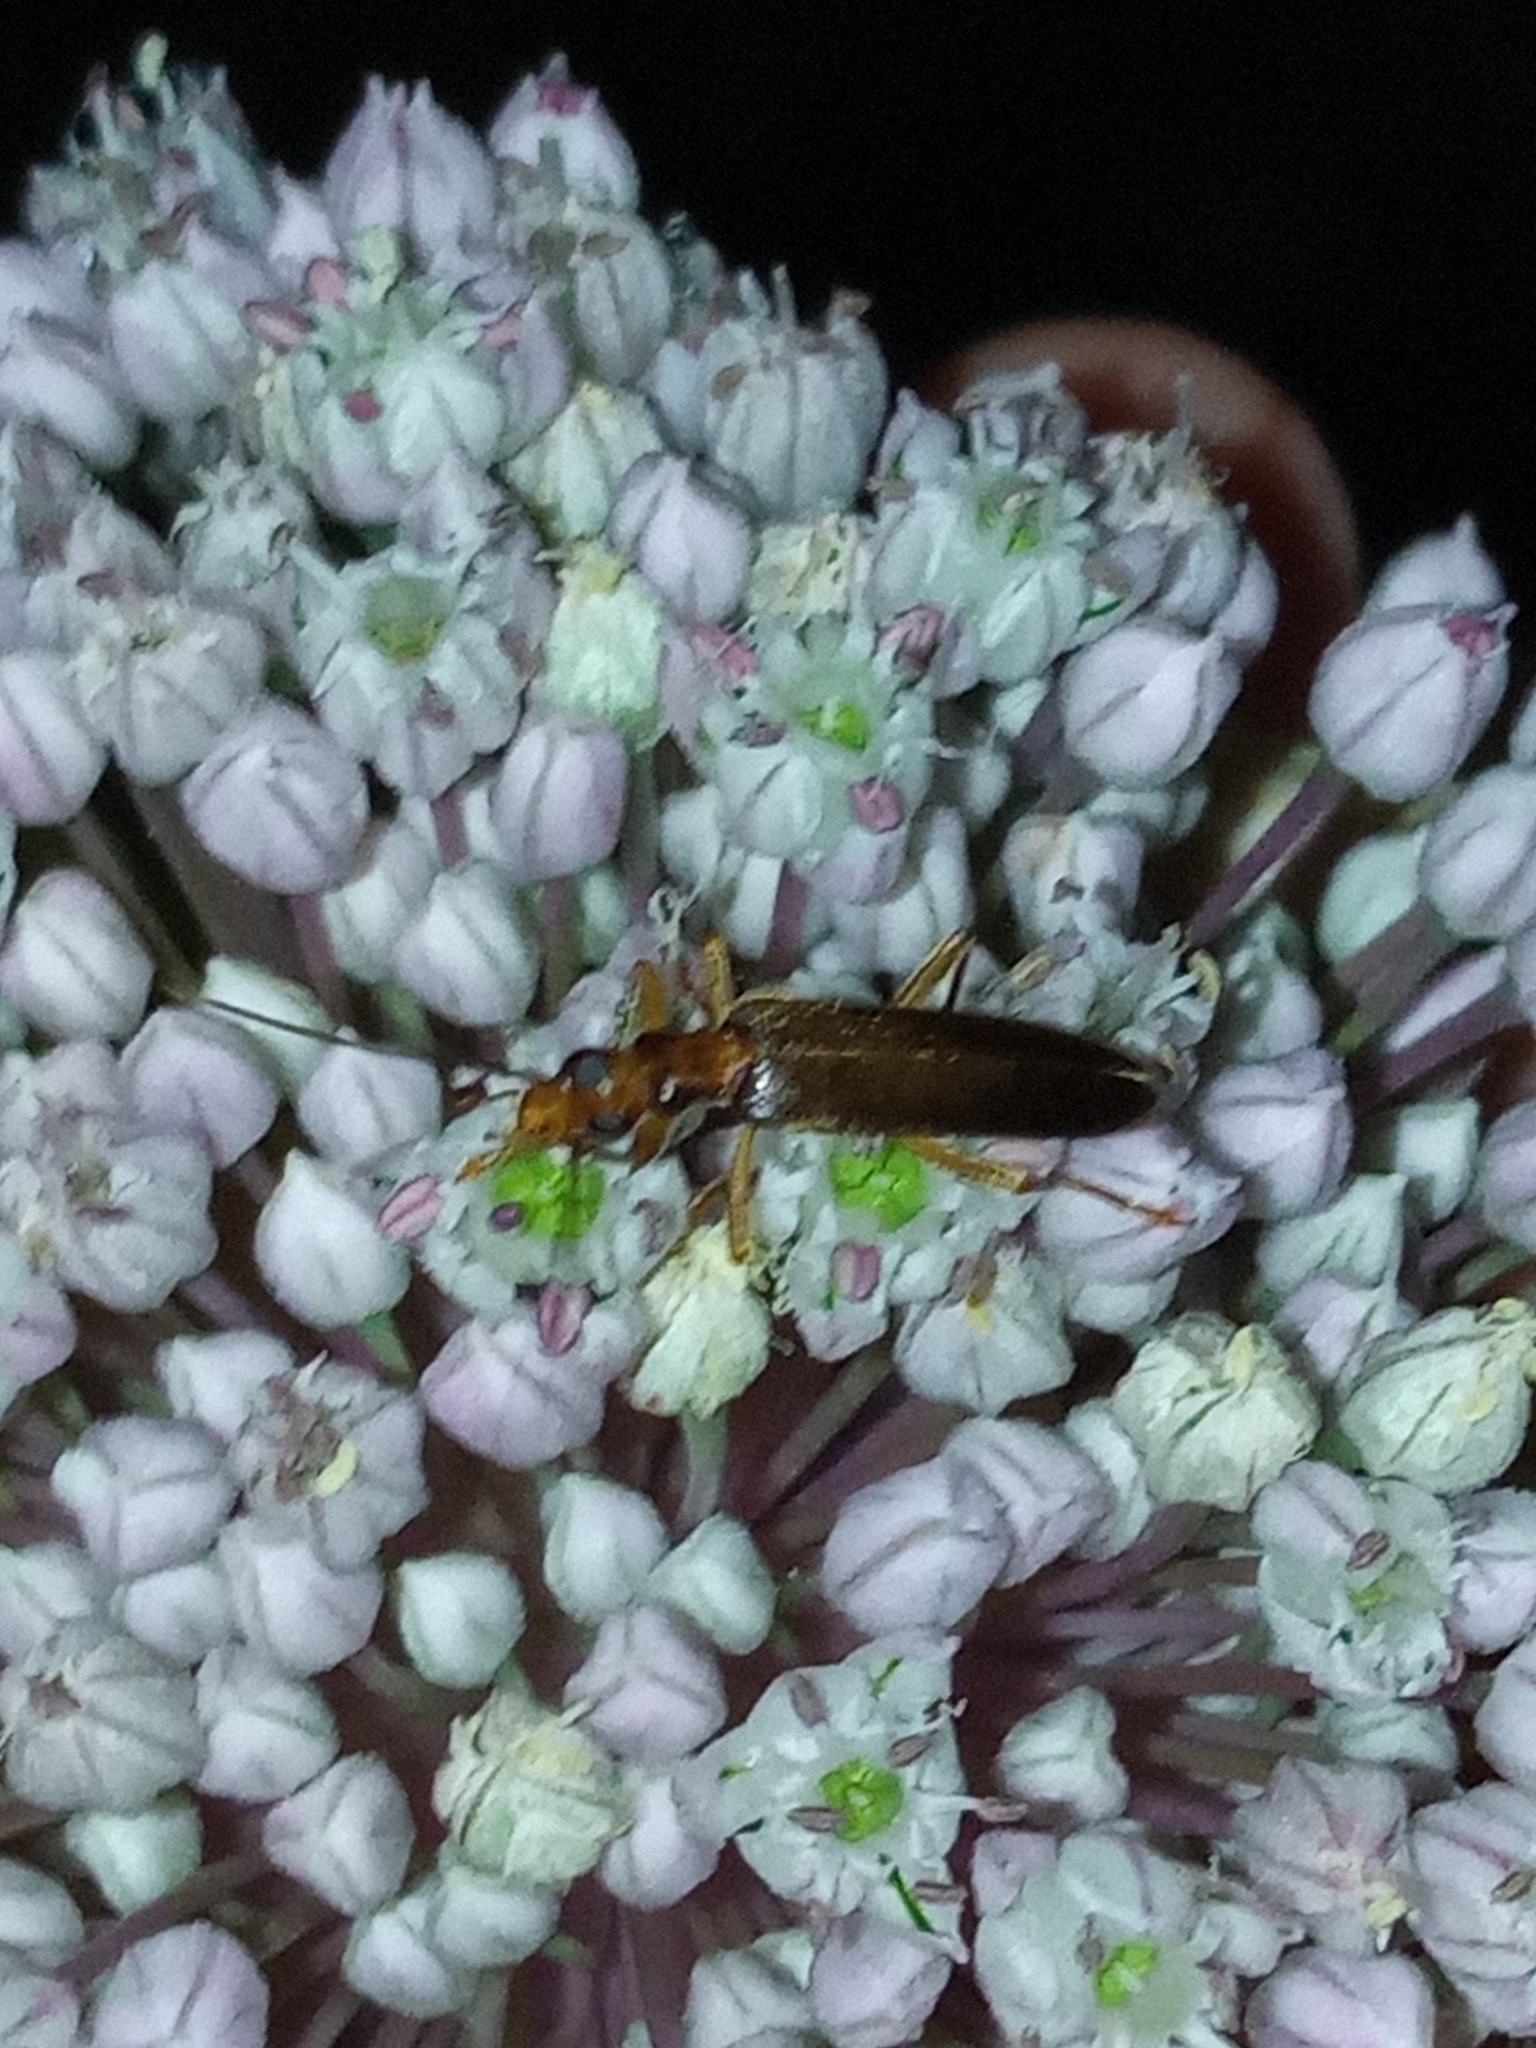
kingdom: Animalia
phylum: Arthropoda
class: Insecta
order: Coleoptera
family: Oedemeridae
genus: Nacerdes
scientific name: Nacerdes carniolica
